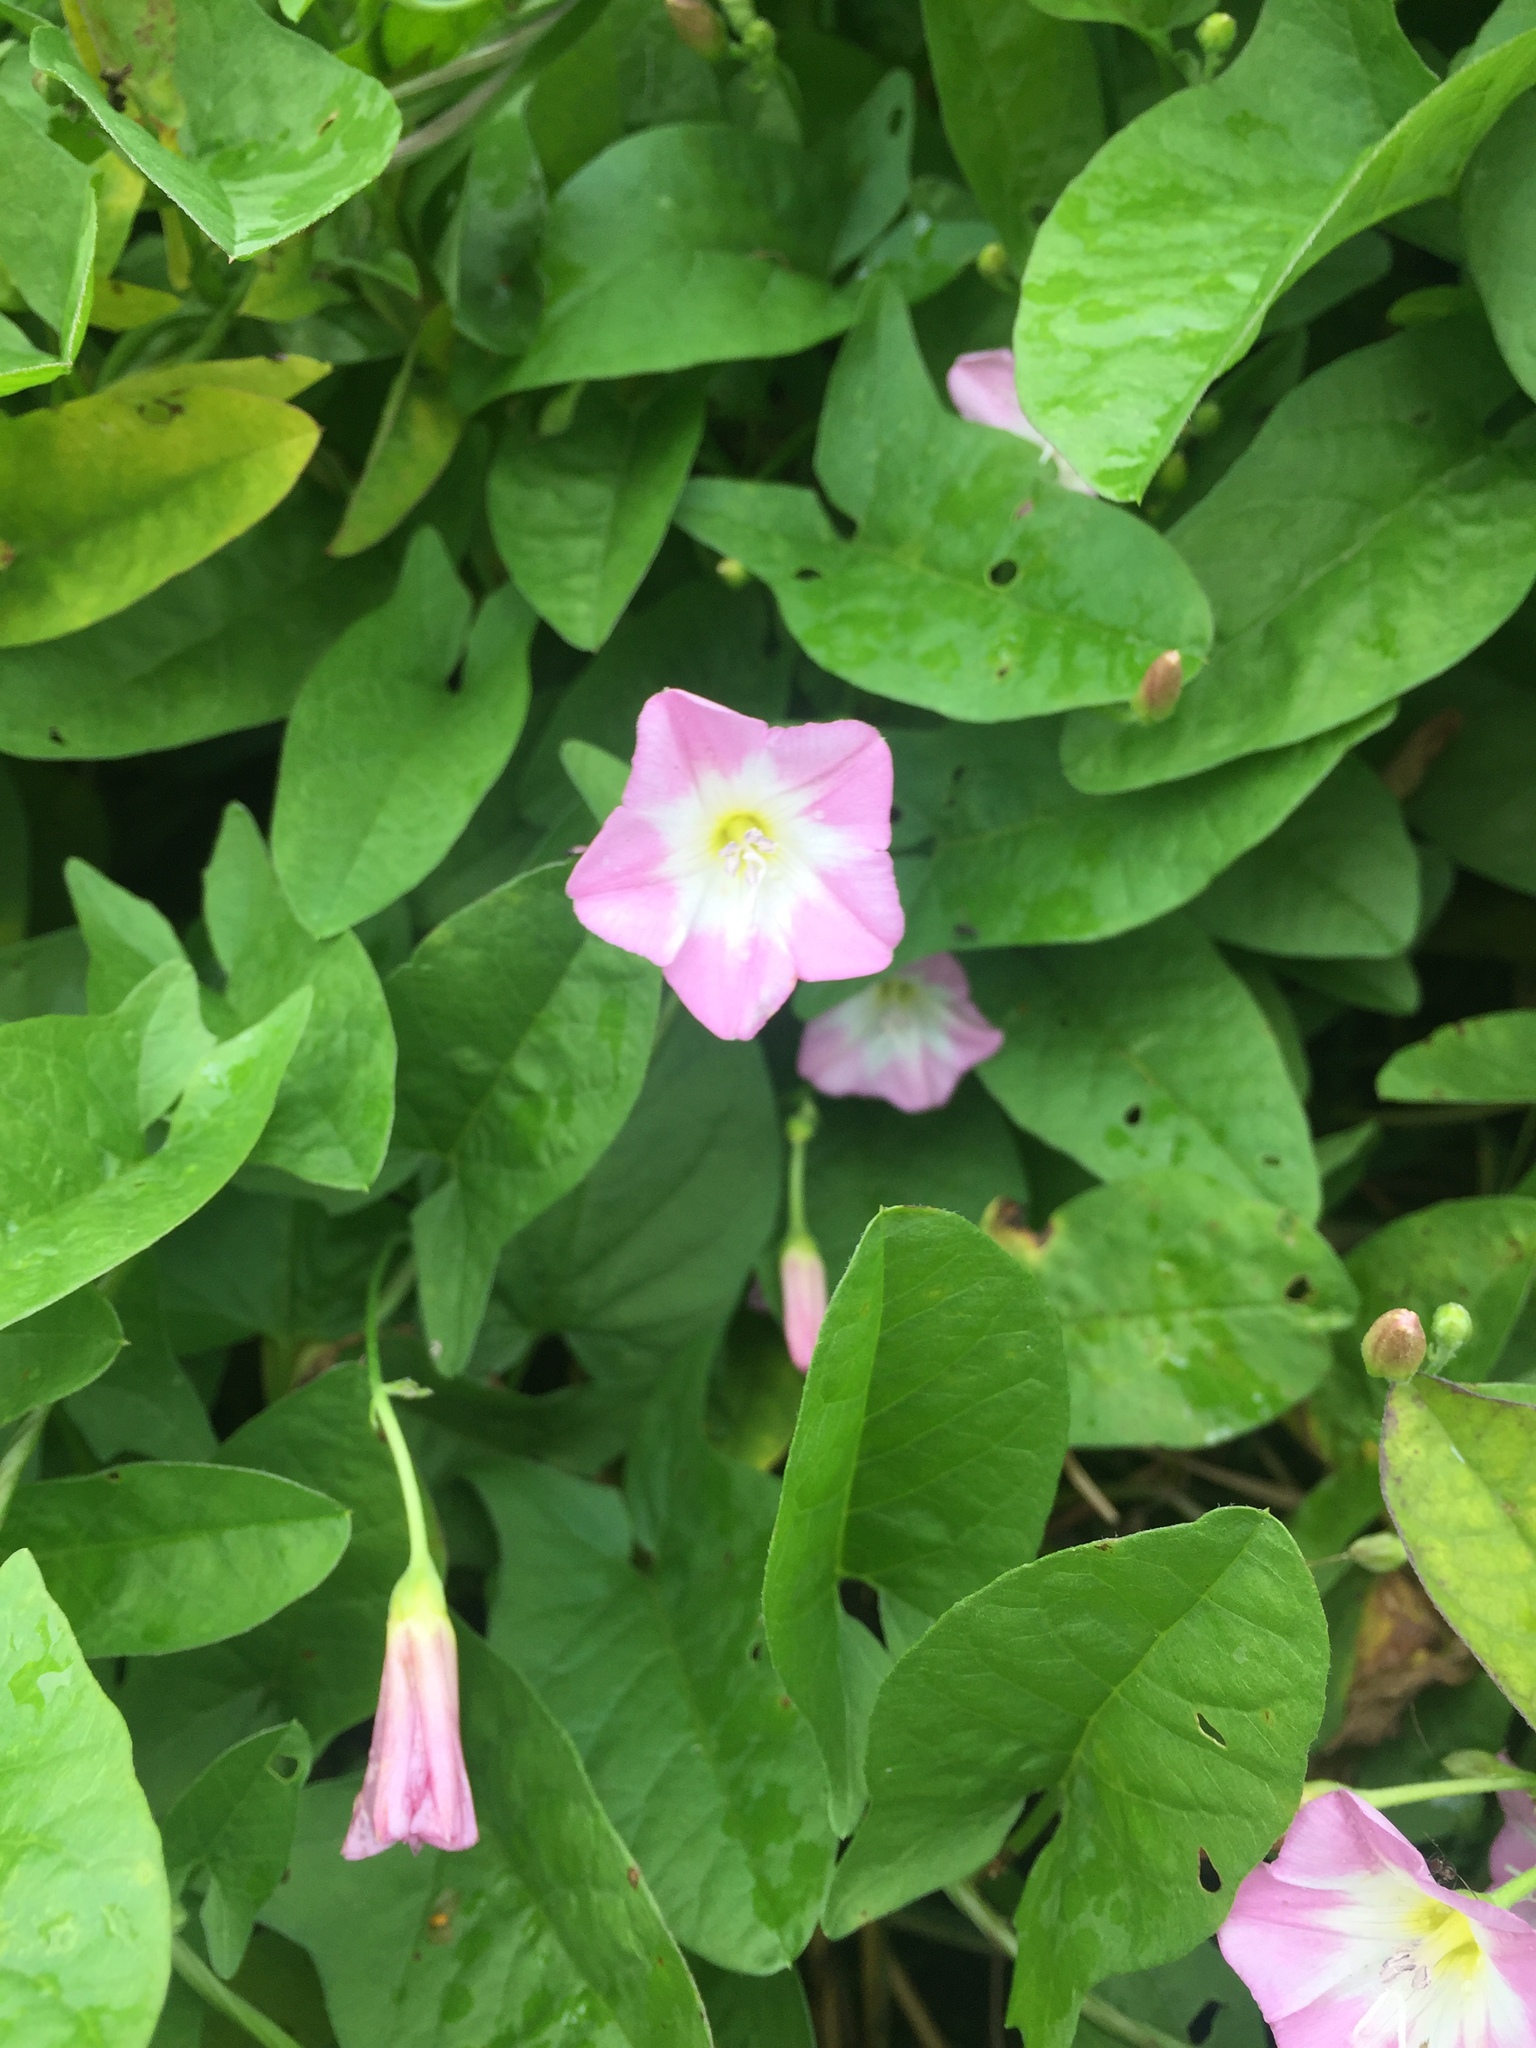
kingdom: Plantae
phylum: Tracheophyta
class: Magnoliopsida
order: Solanales
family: Convolvulaceae
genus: Convolvulus
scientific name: Convolvulus arvensis
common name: Field bindweed
